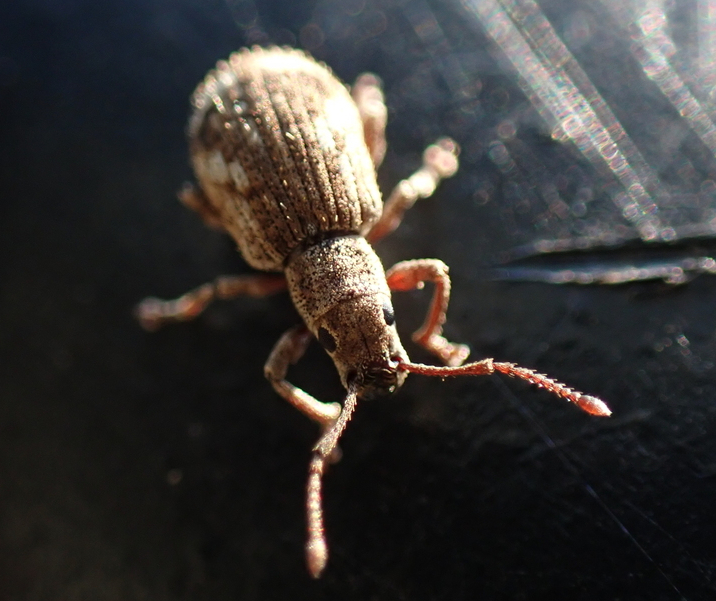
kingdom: Animalia
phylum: Arthropoda
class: Insecta
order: Coleoptera
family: Curculionidae
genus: Pseudoedophrys
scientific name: Pseudoedophrys hilleri
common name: Weevil
